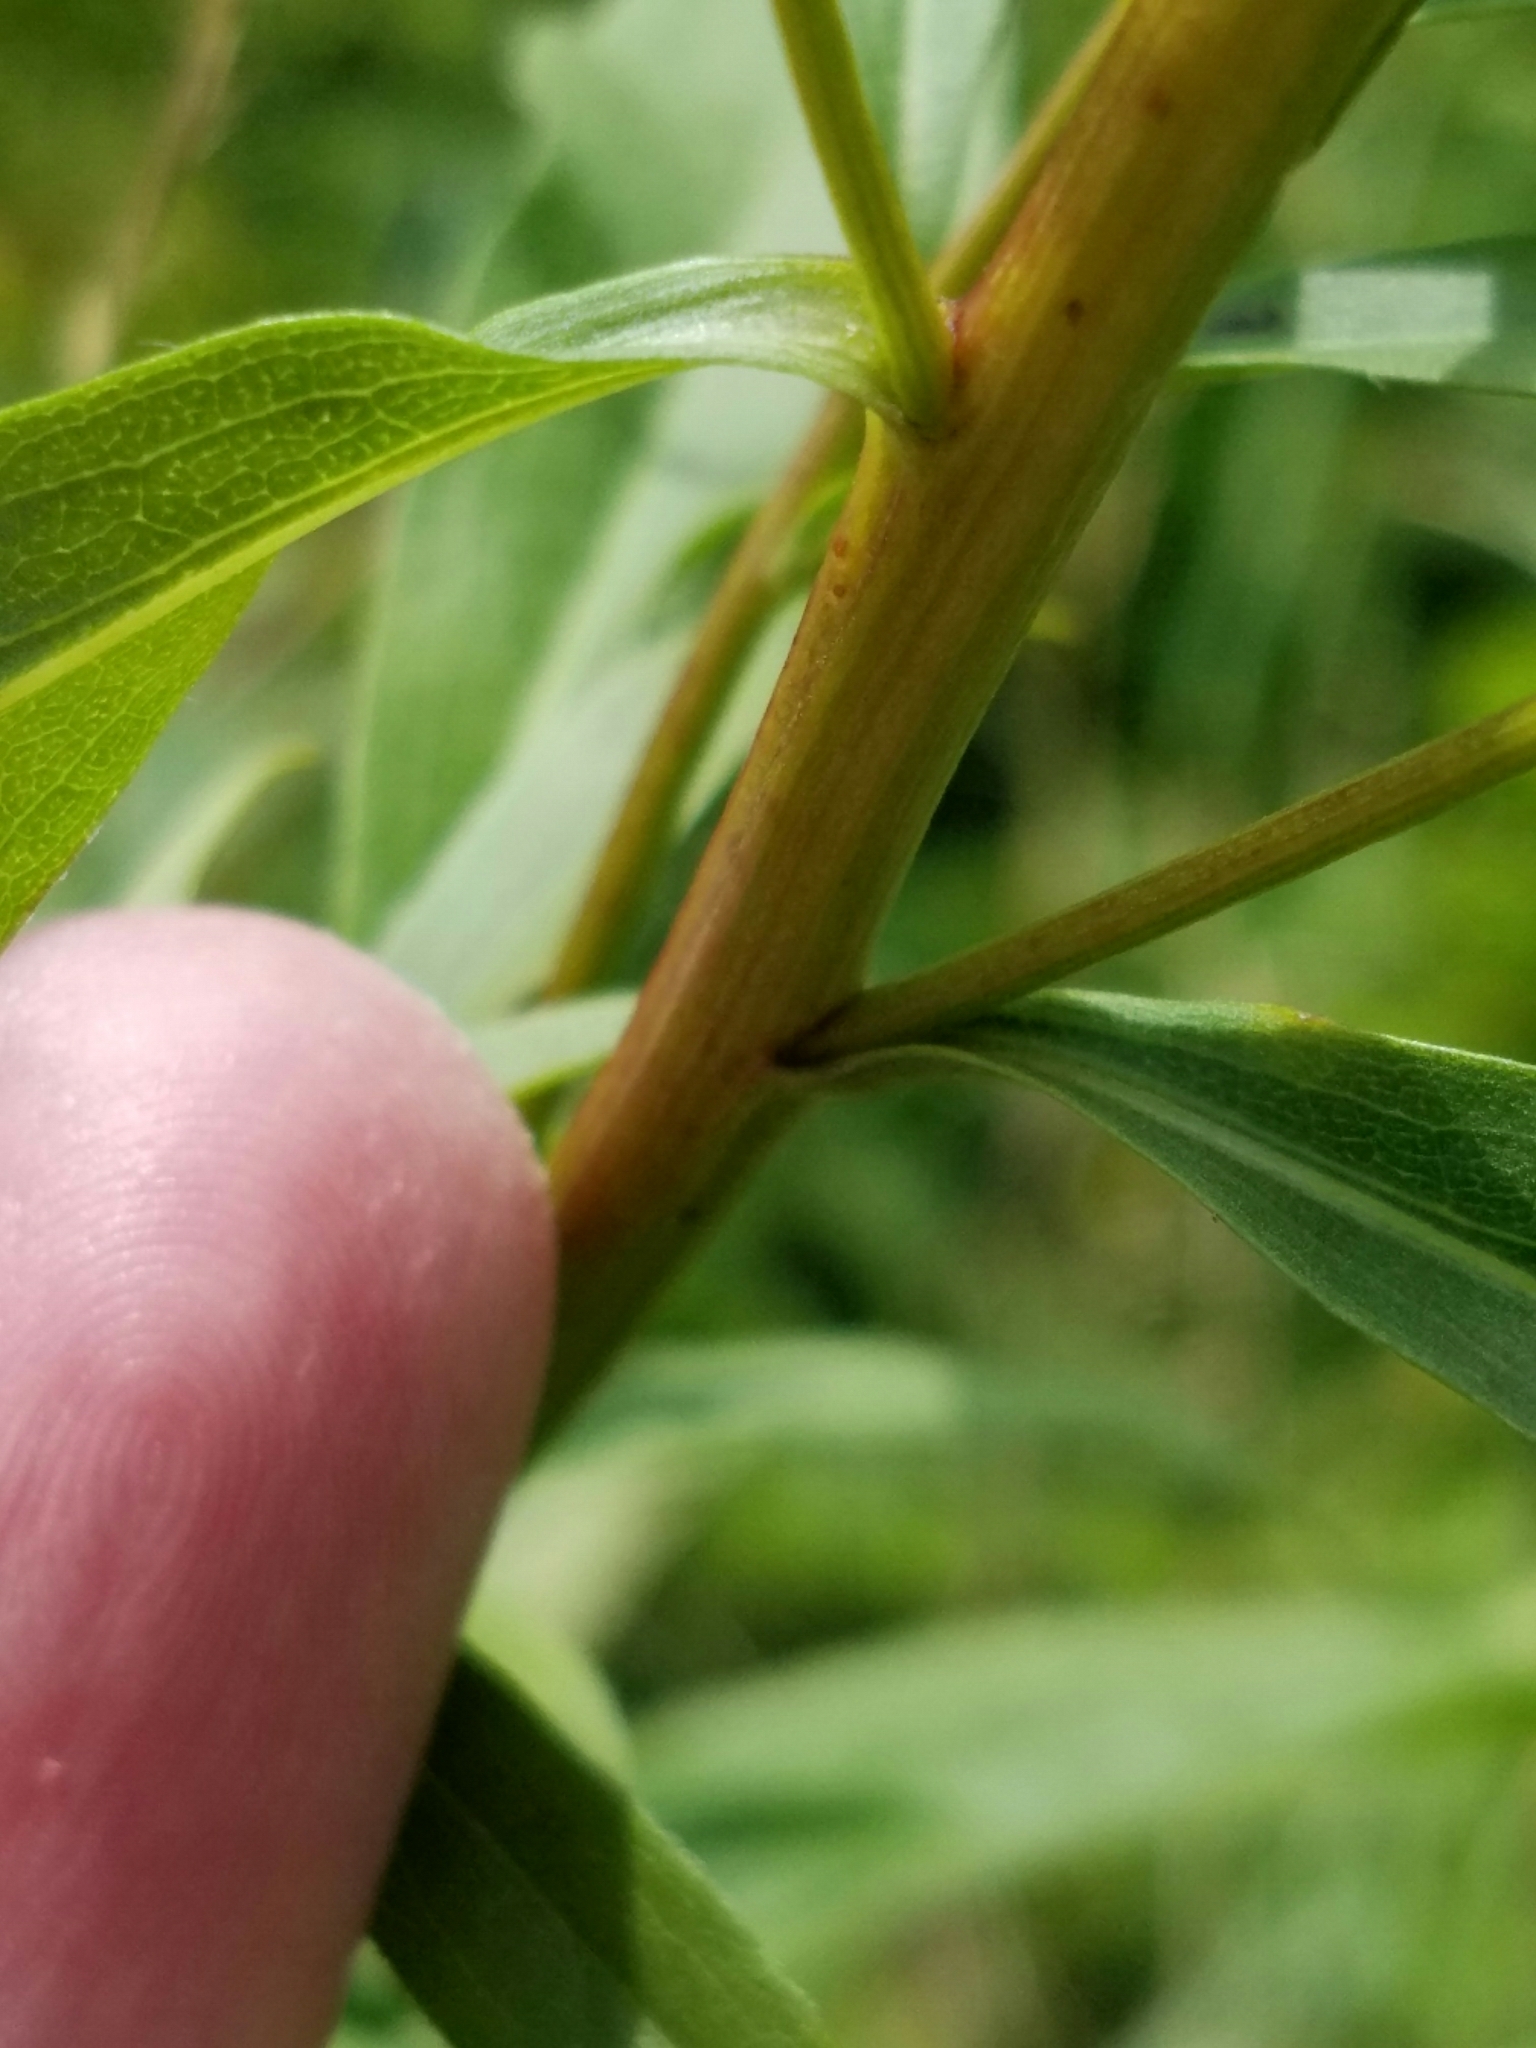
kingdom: Plantae
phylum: Tracheophyta
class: Magnoliopsida
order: Asterales
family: Asteraceae
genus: Solidago
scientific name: Solidago juncea
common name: Early goldenrod
